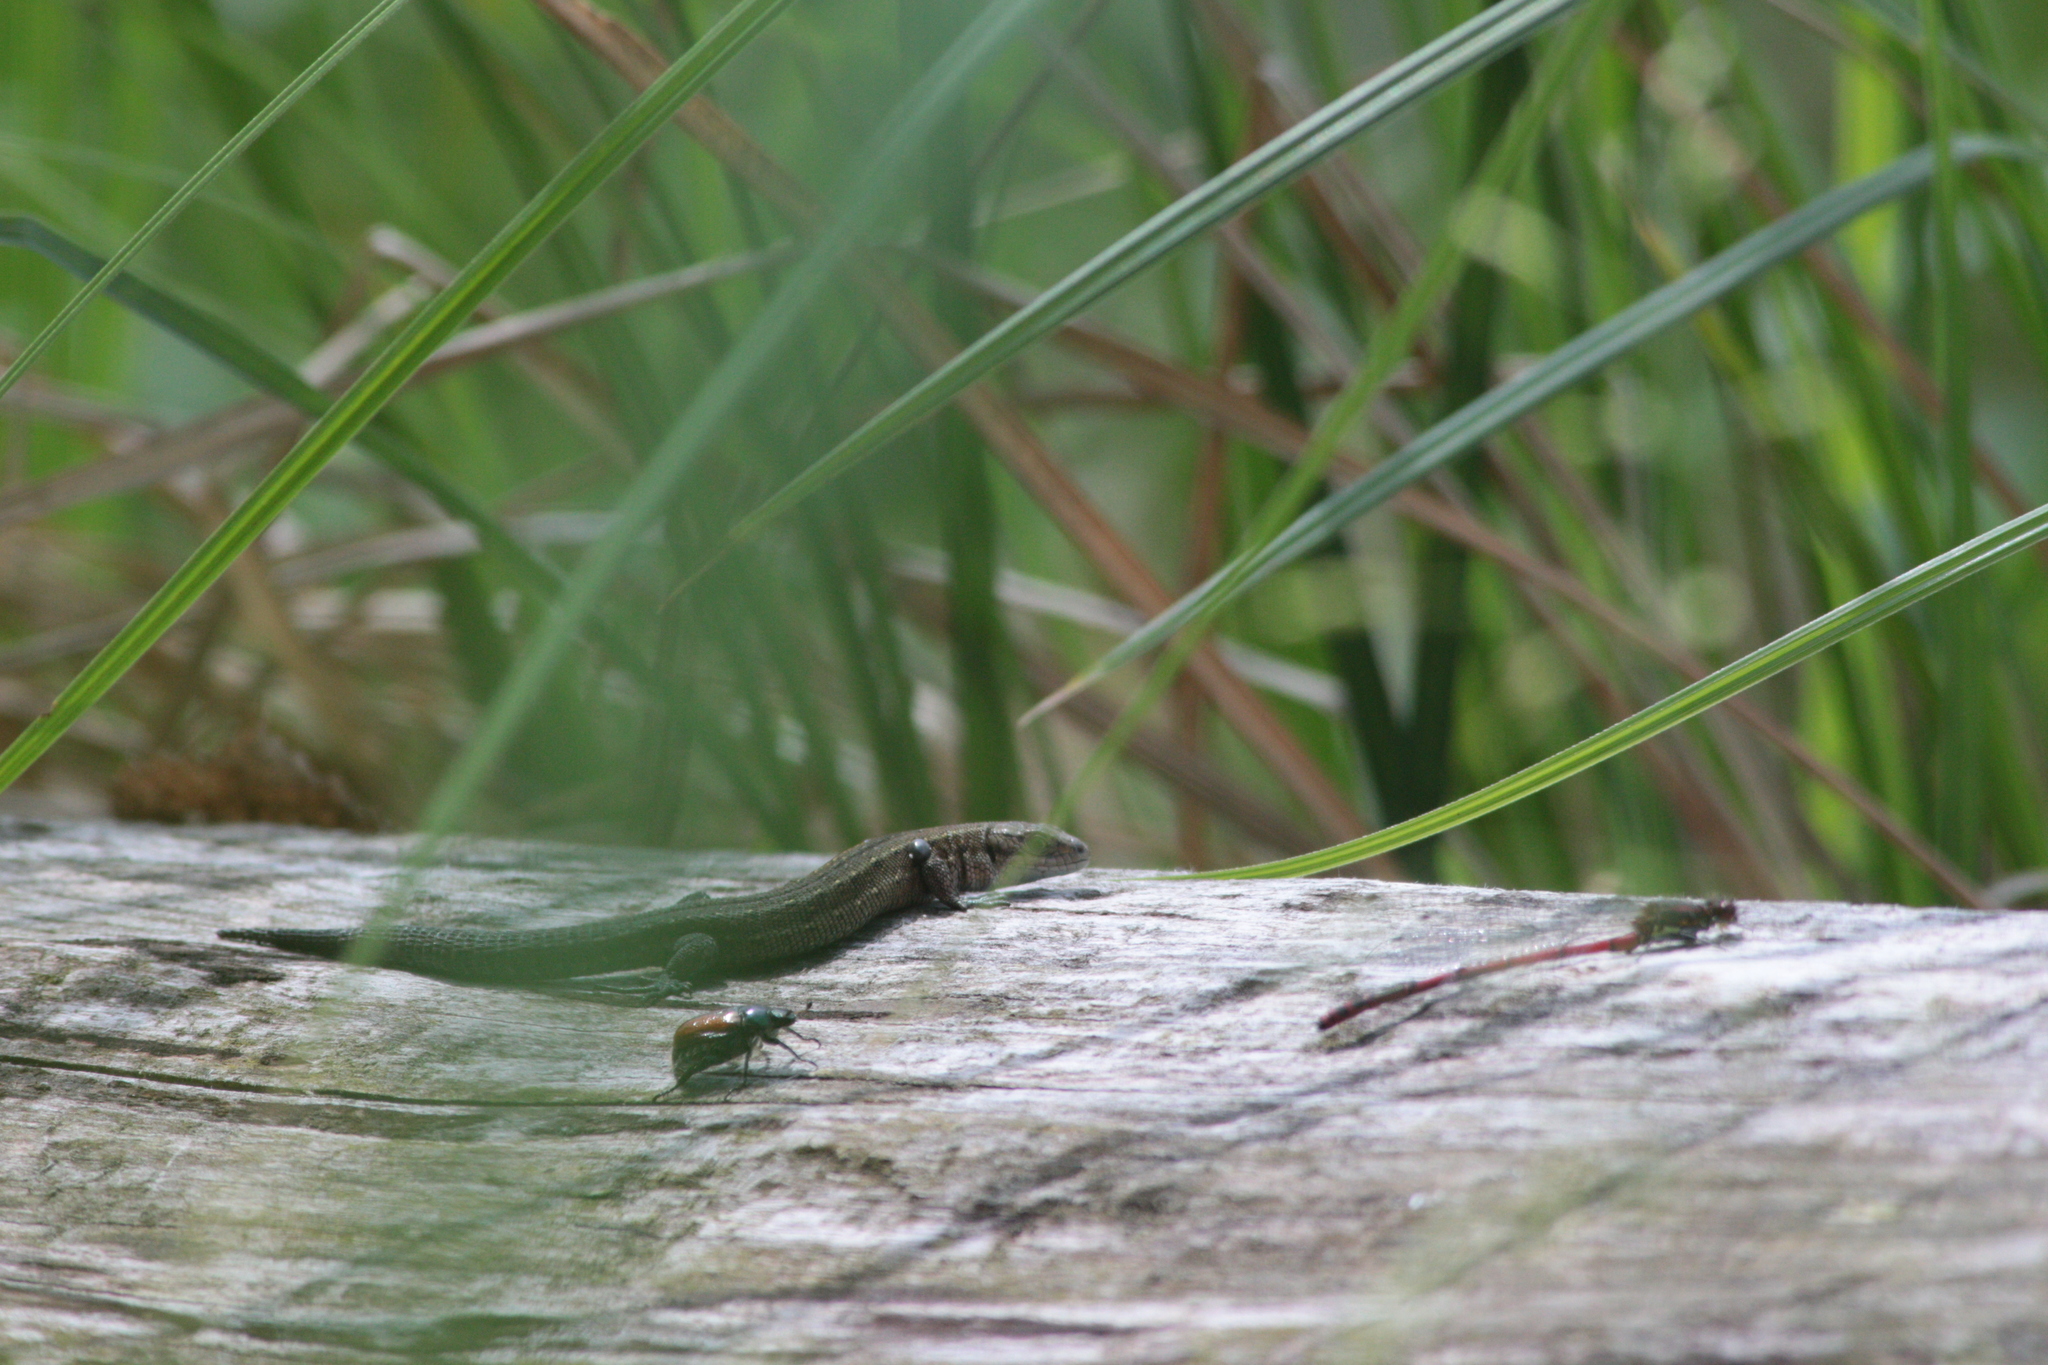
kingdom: Animalia
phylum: Chordata
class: Squamata
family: Lacertidae
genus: Zootoca
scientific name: Zootoca vivipara
